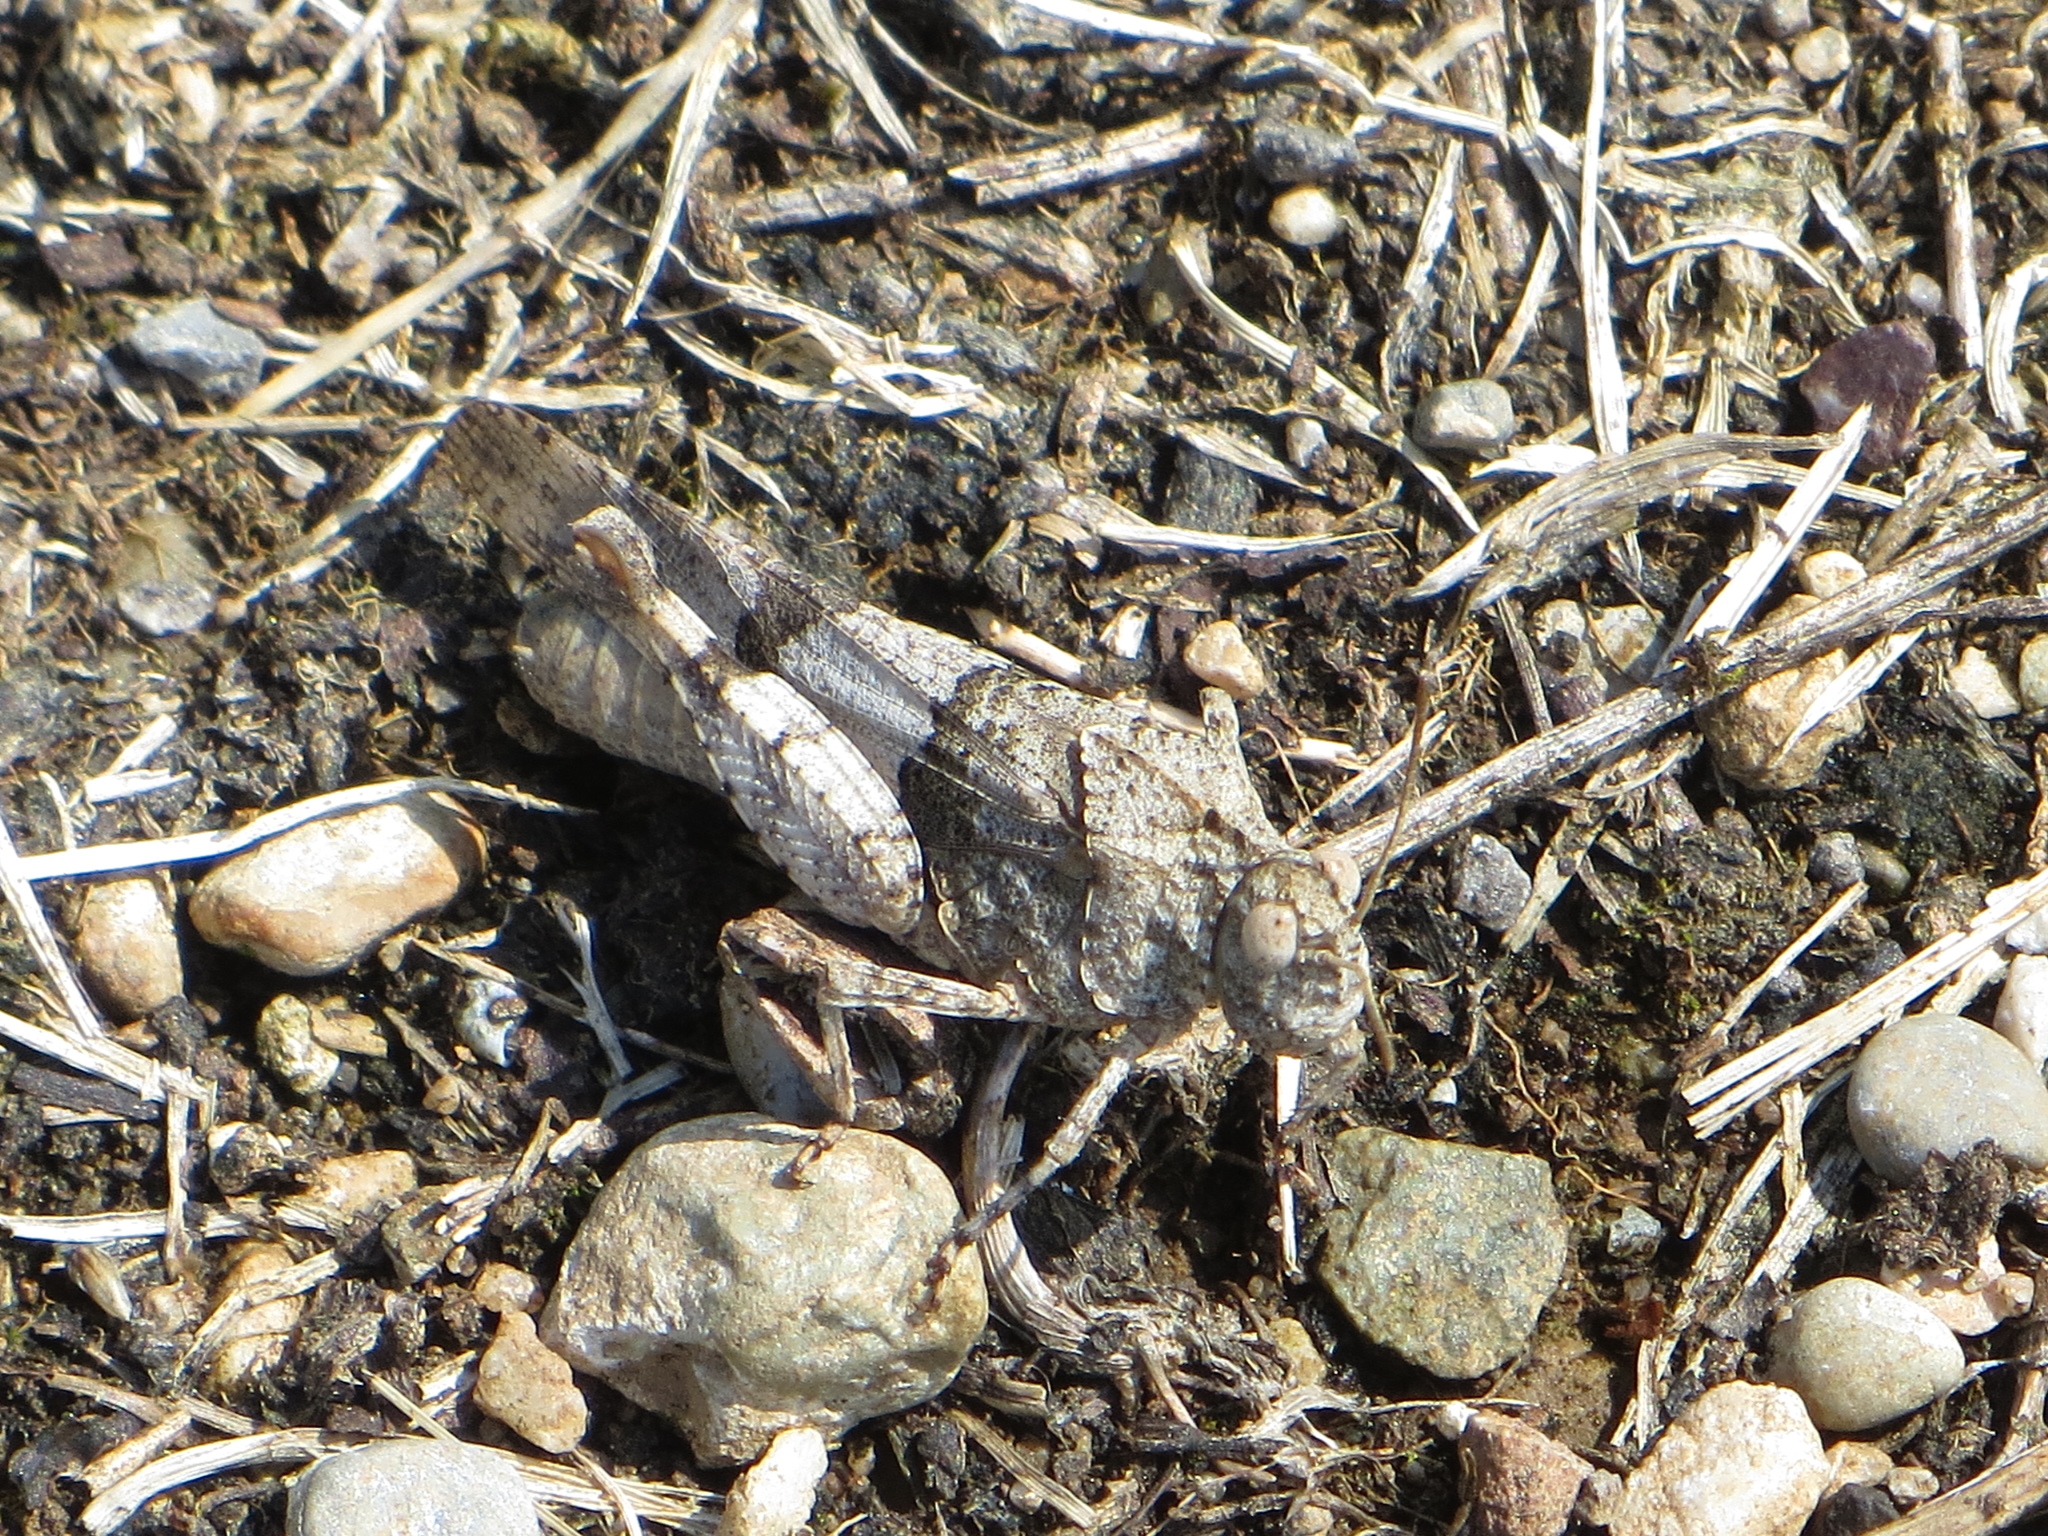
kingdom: Animalia
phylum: Arthropoda
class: Insecta
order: Orthoptera
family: Acrididae
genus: Oedipoda
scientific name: Oedipoda caerulescens
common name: Blue-winged grasshopper
